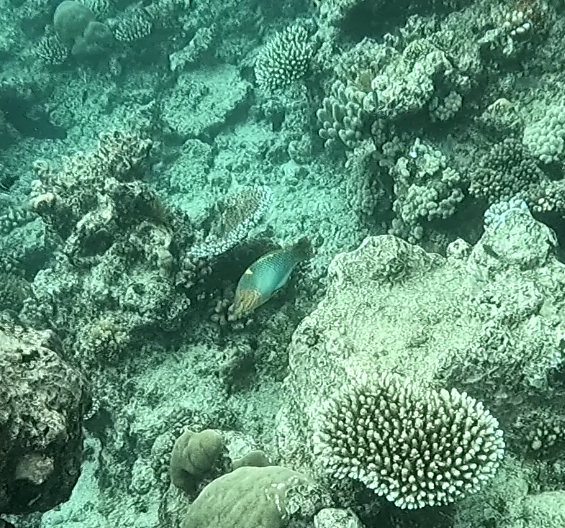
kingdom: Animalia
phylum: Chordata
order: Perciformes
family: Labridae
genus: Halichoeres
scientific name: Halichoeres hortulanus
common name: Checkerboard wrasse
